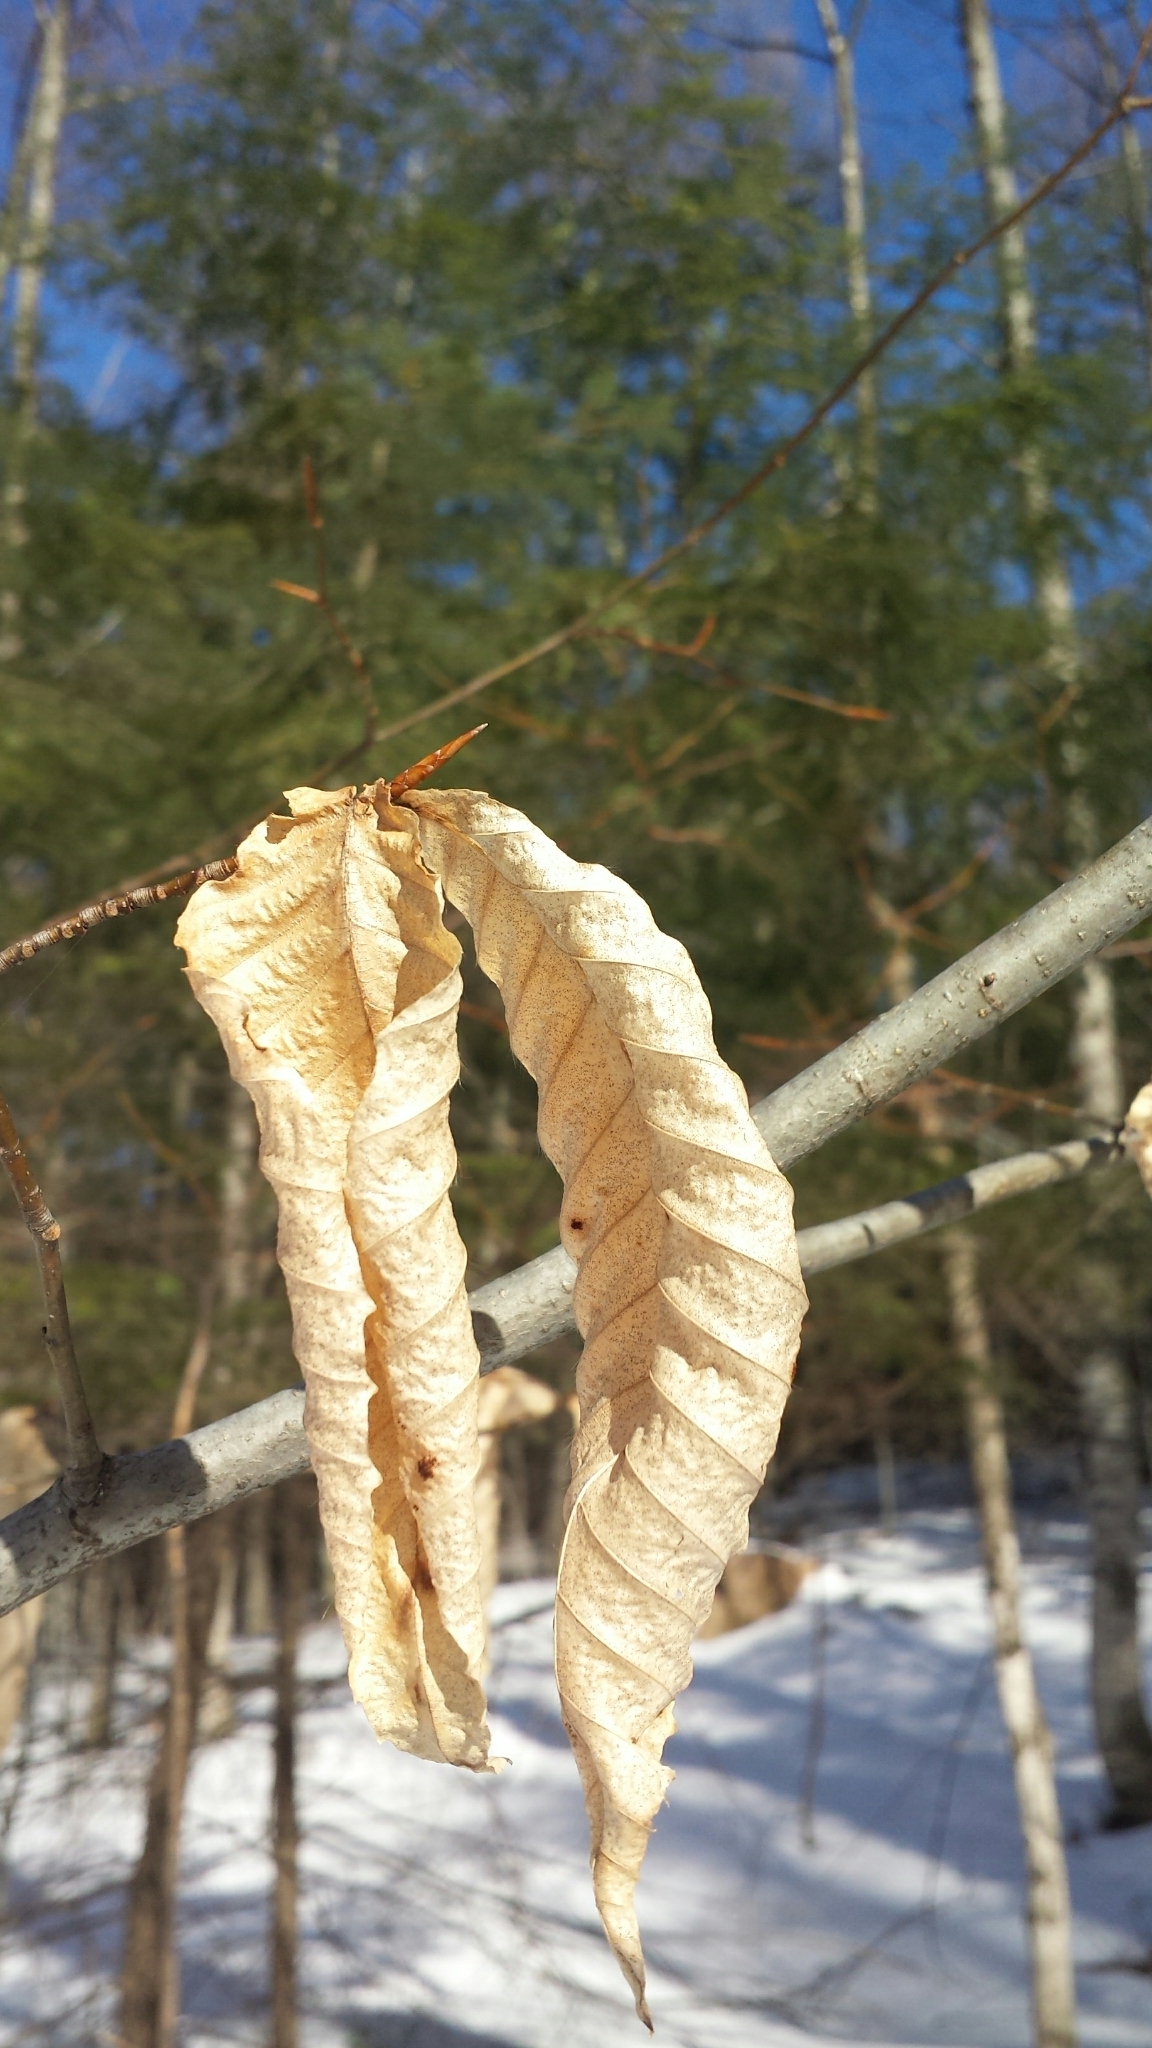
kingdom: Plantae
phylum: Tracheophyta
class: Magnoliopsida
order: Fagales
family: Fagaceae
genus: Fagus
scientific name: Fagus grandifolia
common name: American beech
